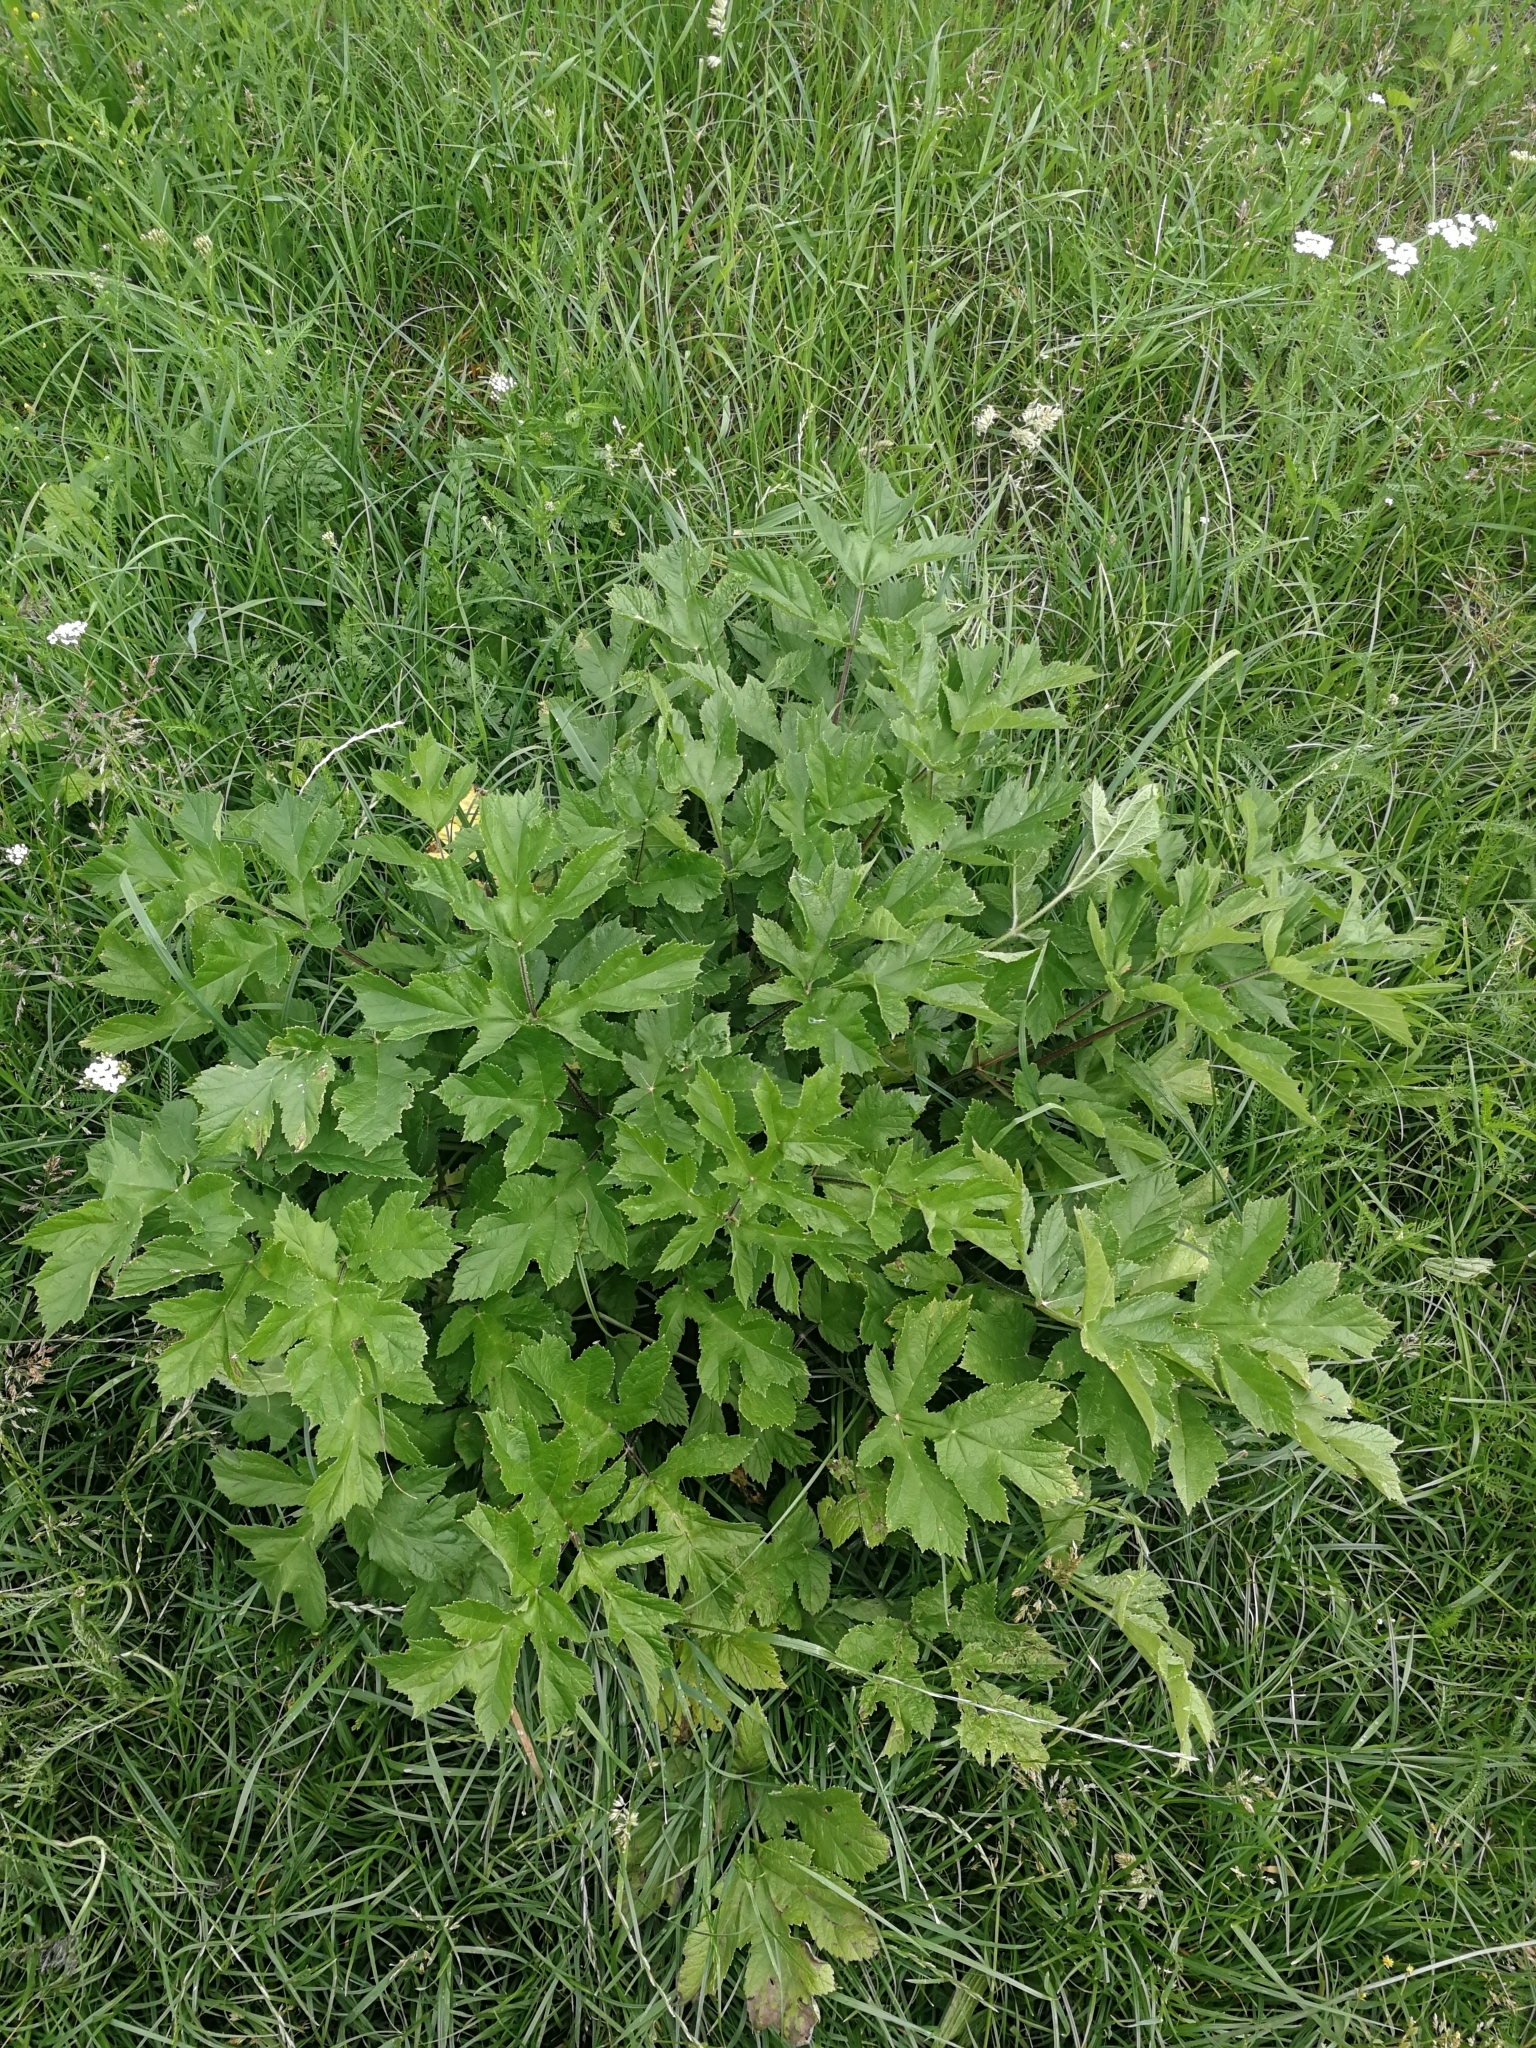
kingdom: Plantae
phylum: Tracheophyta
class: Magnoliopsida
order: Apiales
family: Apiaceae
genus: Heracleum
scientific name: Heracleum sphondylium
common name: Hogweed
